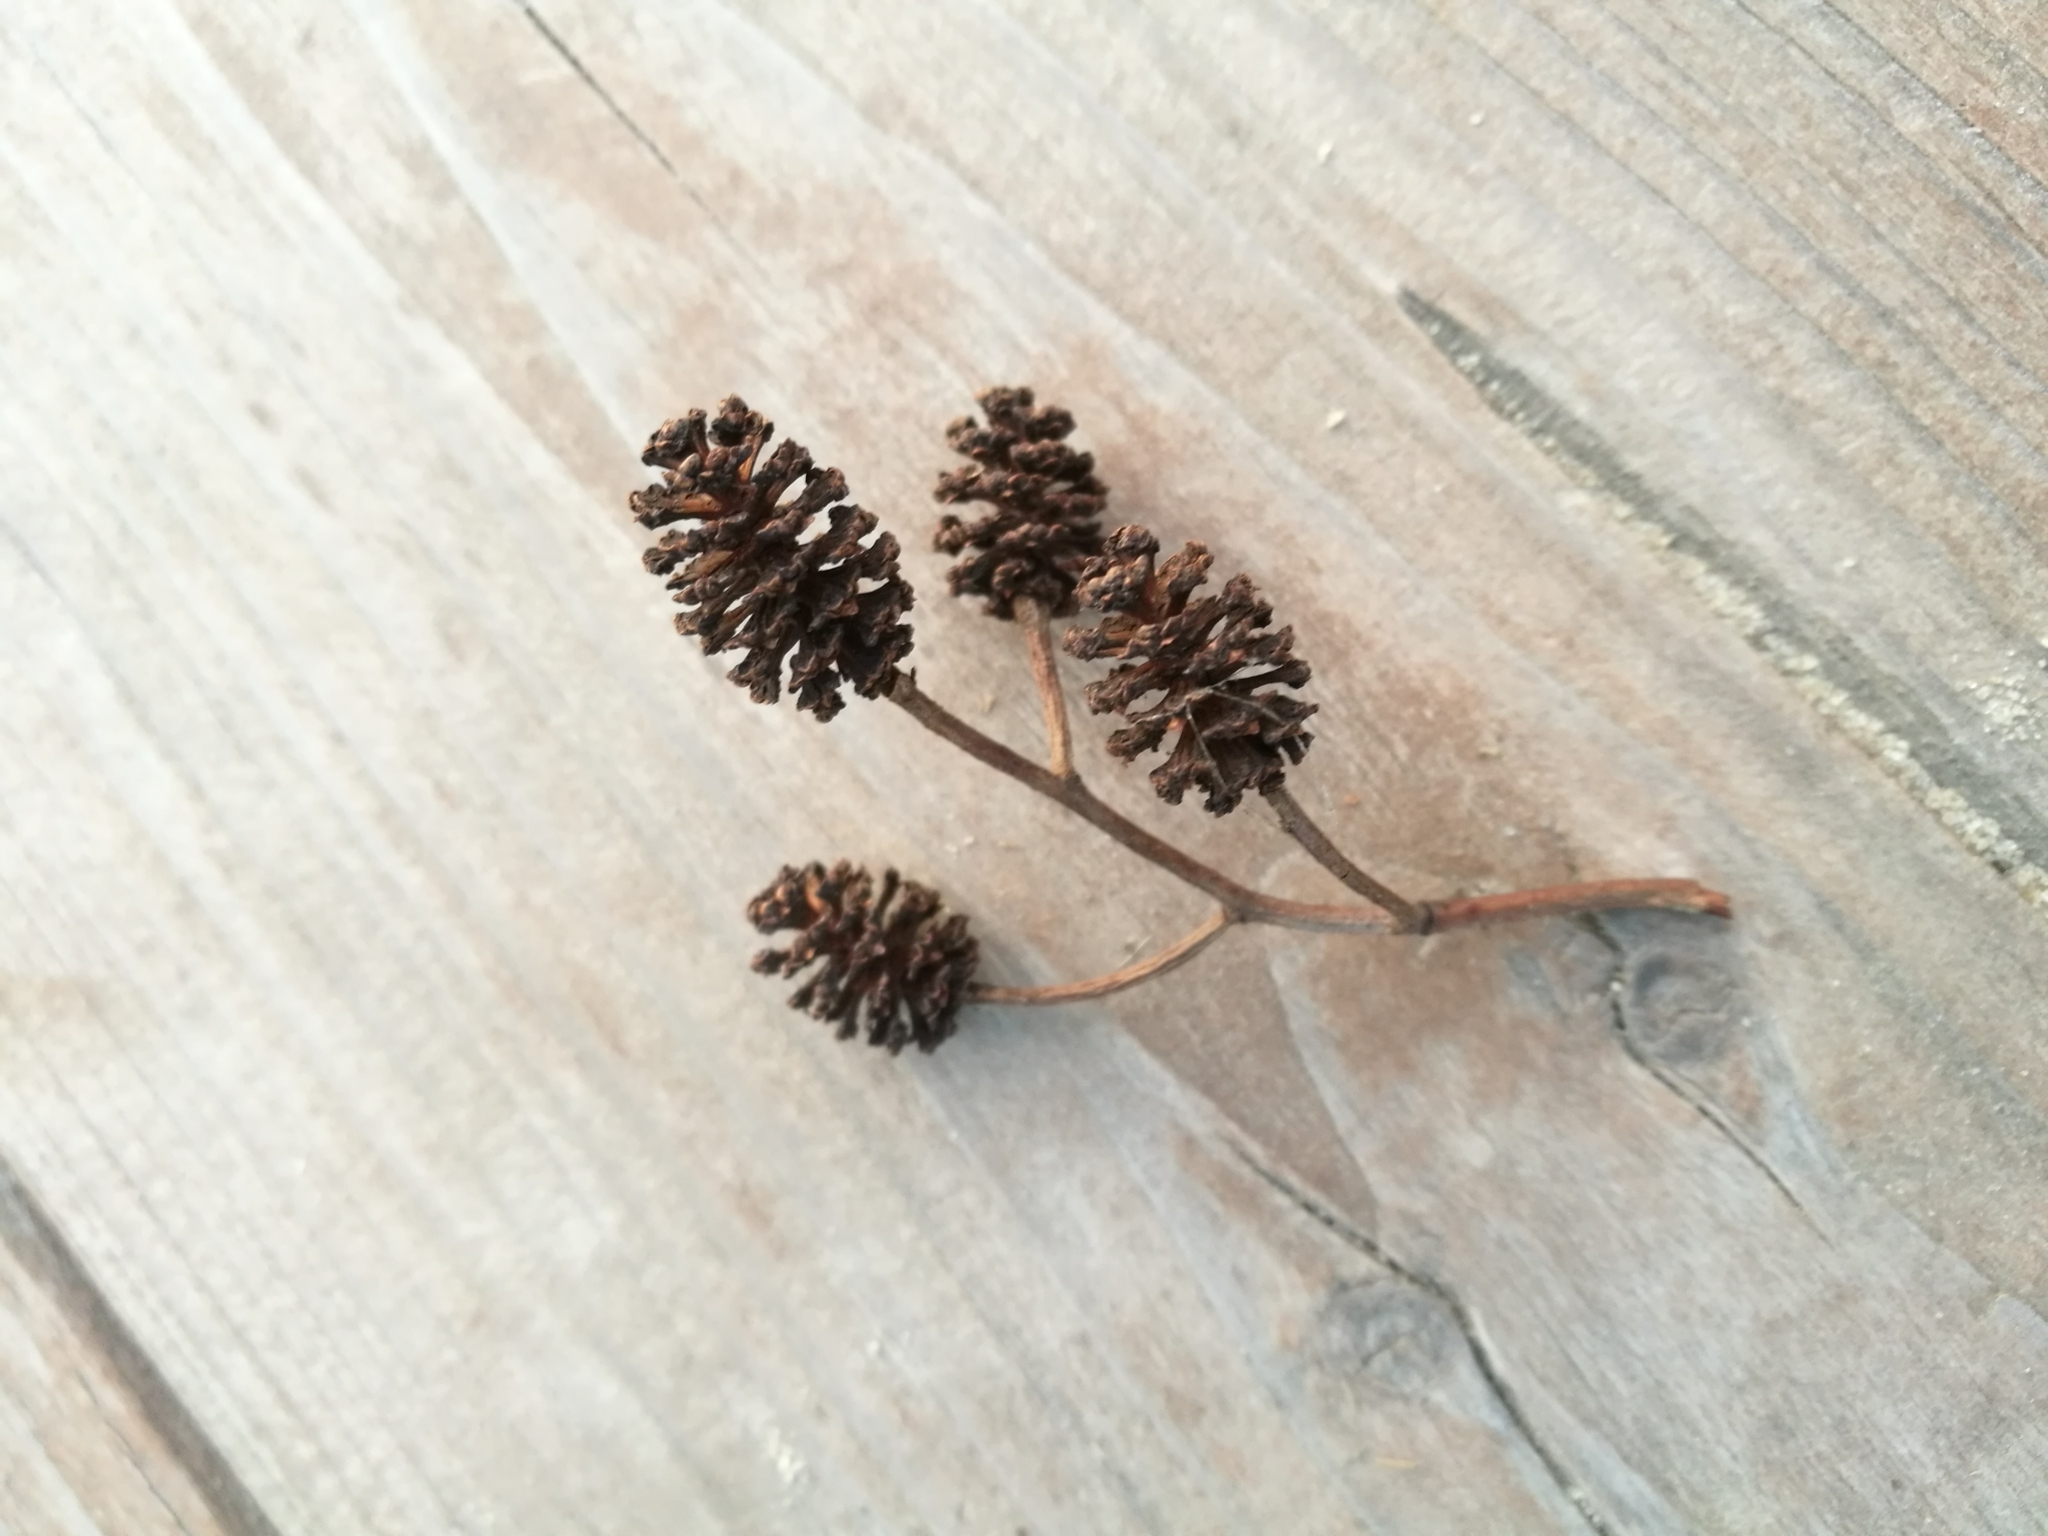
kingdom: Plantae
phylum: Tracheophyta
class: Magnoliopsida
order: Fagales
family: Betulaceae
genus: Alnus
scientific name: Alnus glutinosa
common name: Black alder
